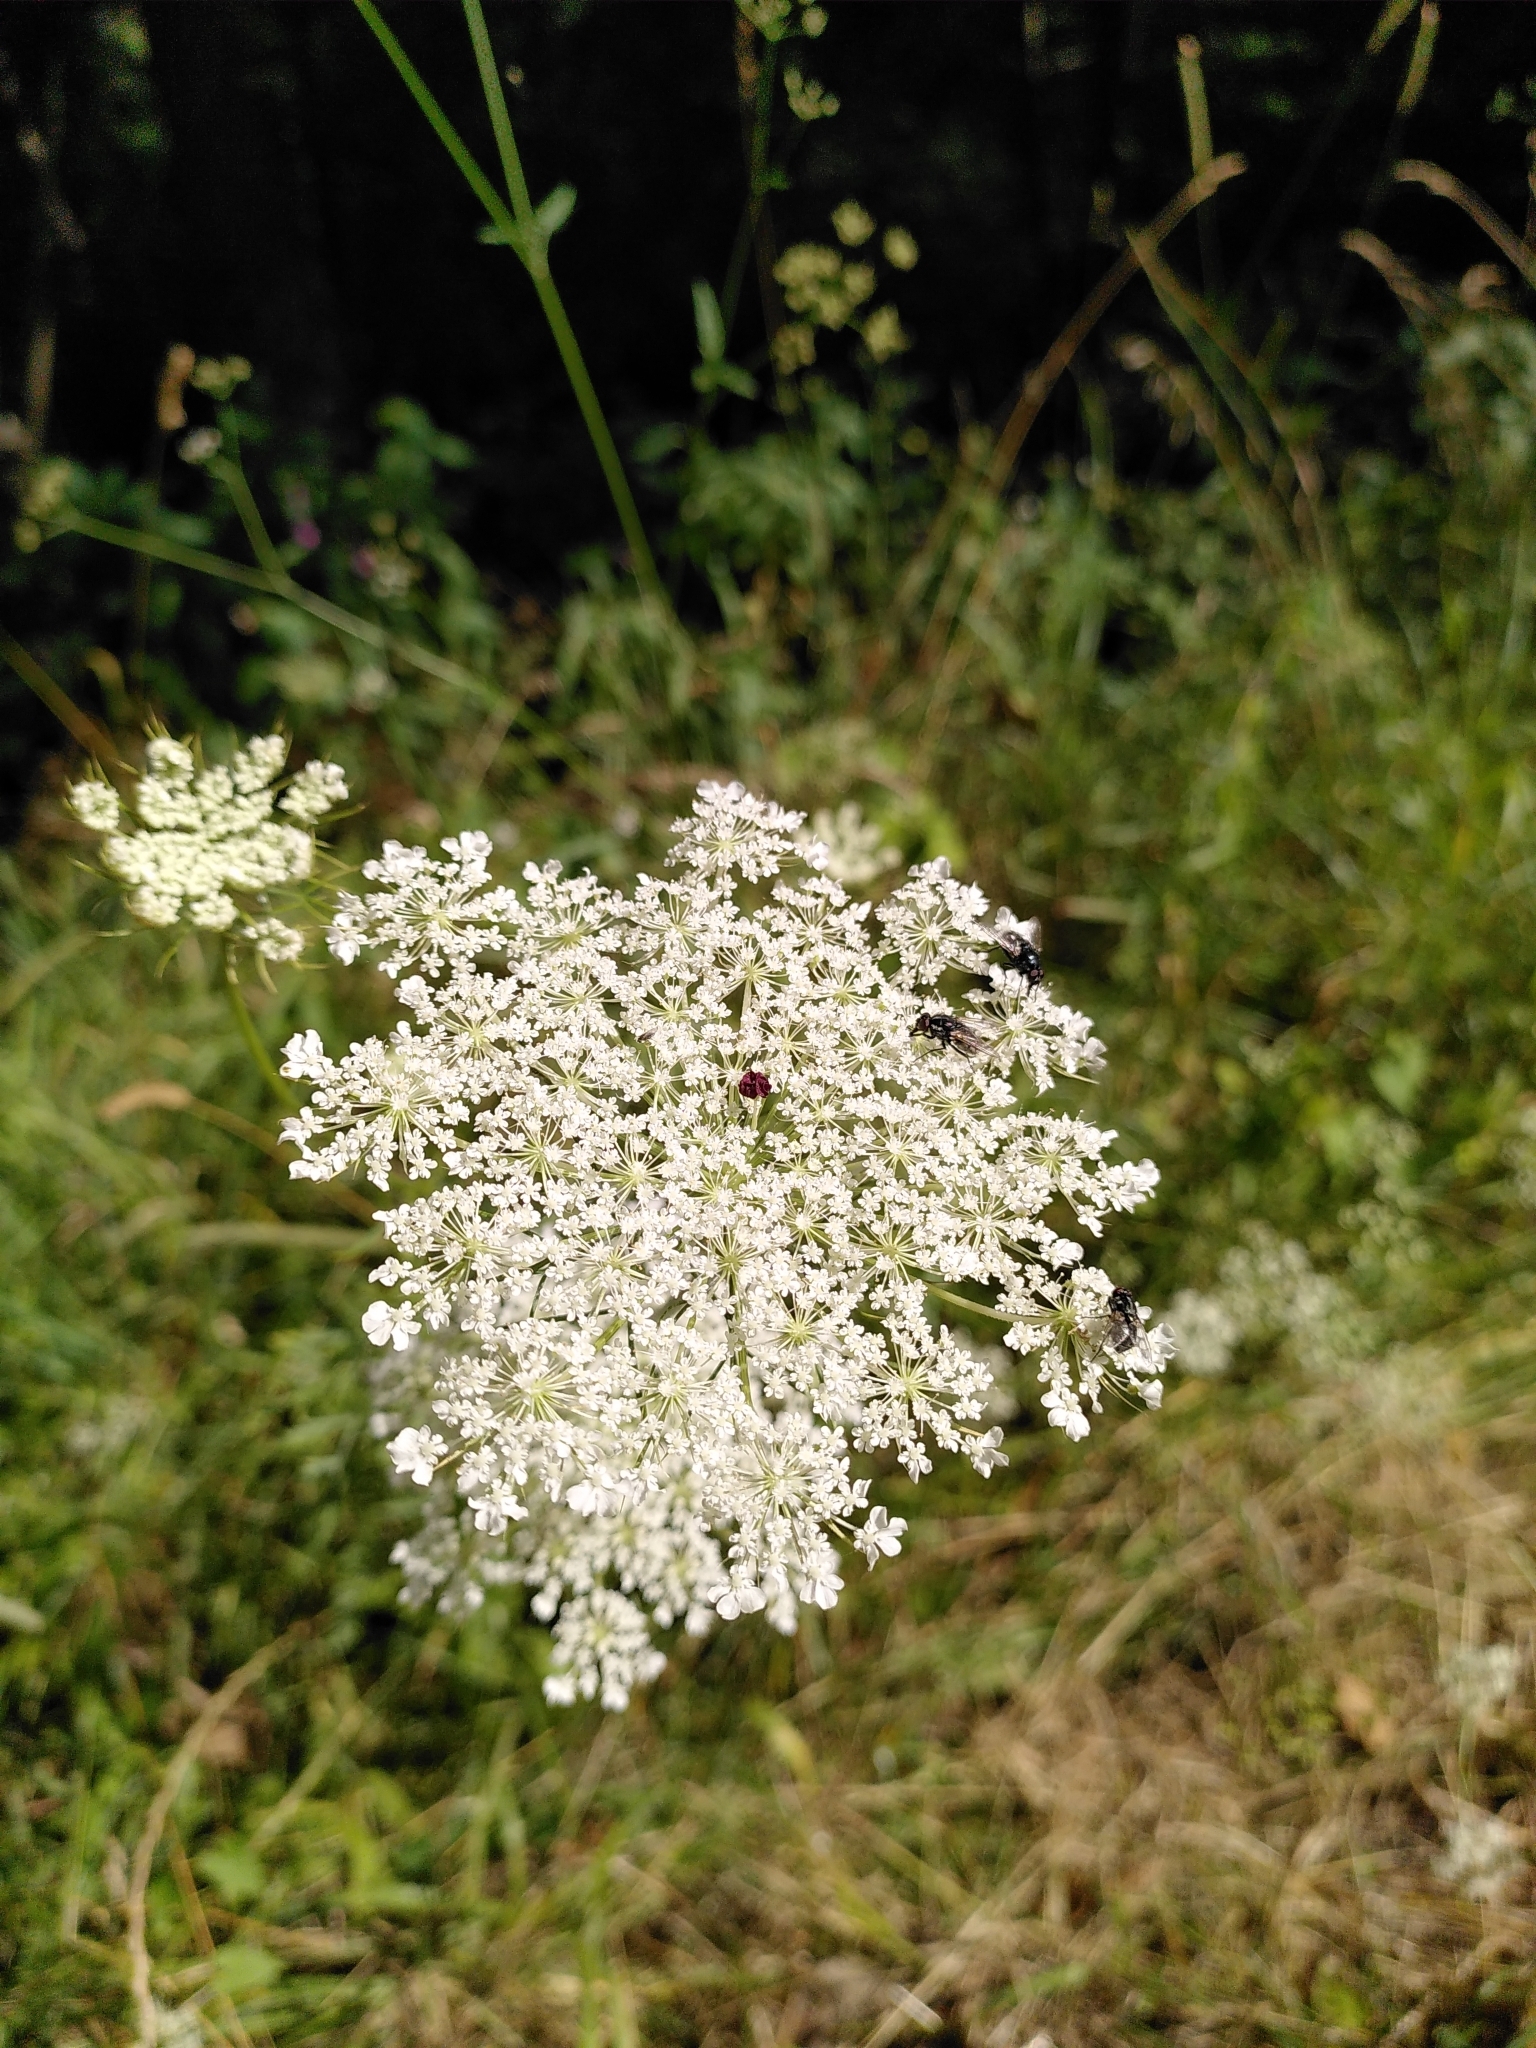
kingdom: Plantae
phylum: Tracheophyta
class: Magnoliopsida
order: Apiales
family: Apiaceae
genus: Daucus
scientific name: Daucus carota
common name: Wild carrot
